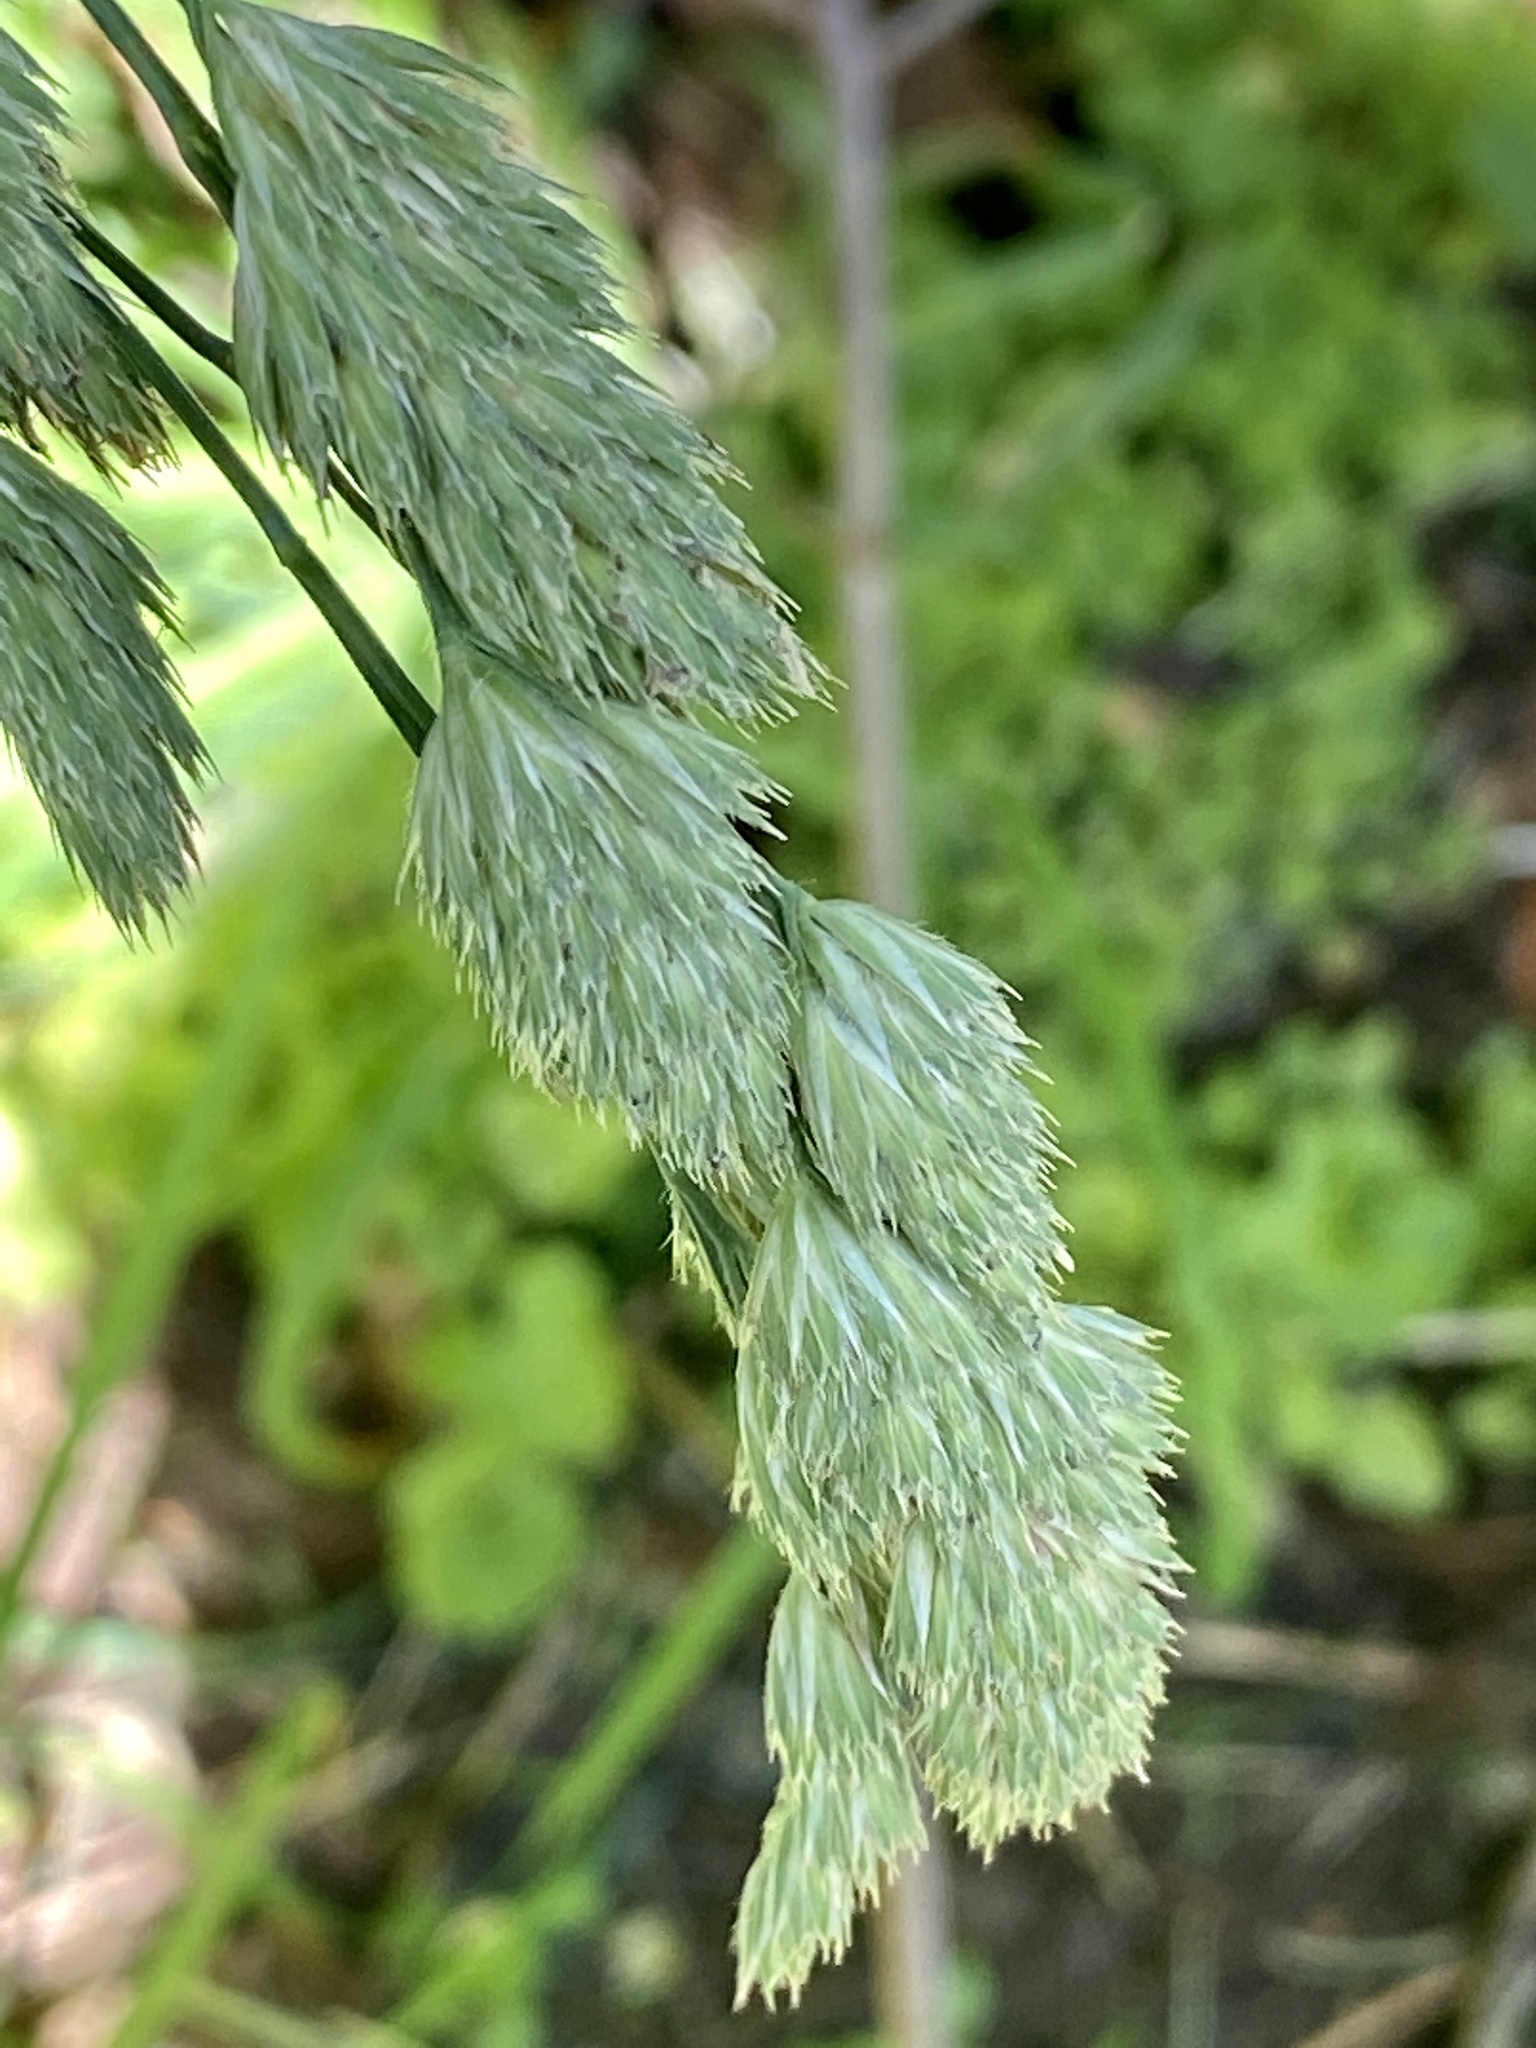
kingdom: Plantae
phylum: Tracheophyta
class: Liliopsida
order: Poales
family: Poaceae
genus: Dactylis
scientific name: Dactylis glomerata
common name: Orchardgrass
